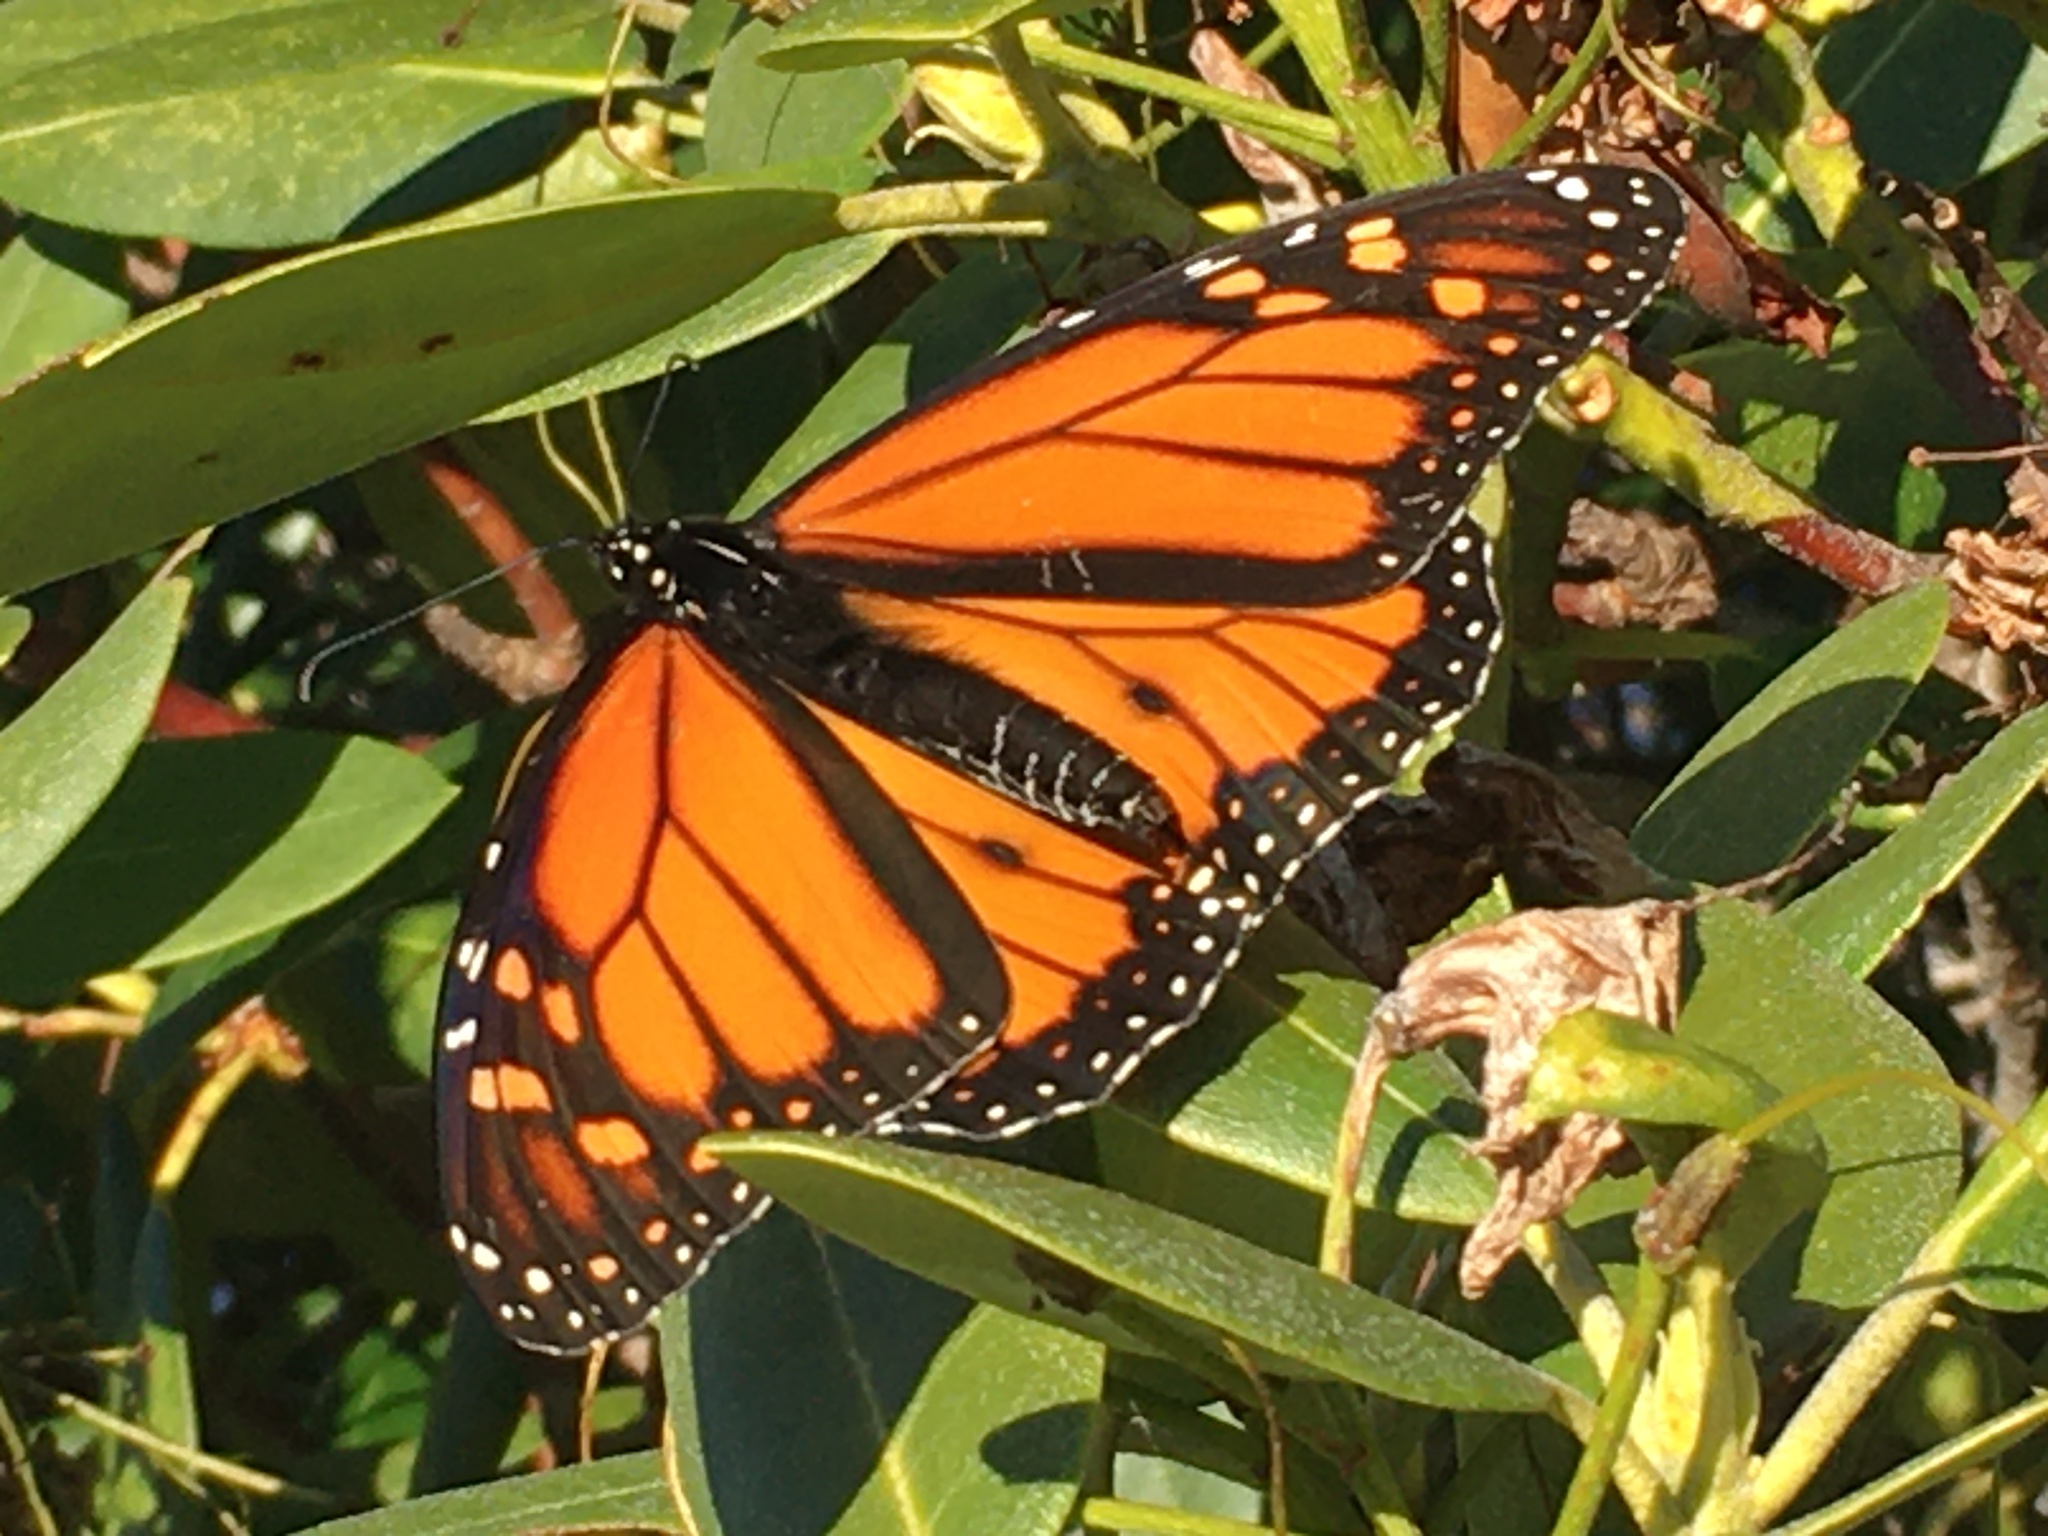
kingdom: Animalia
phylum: Arthropoda
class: Insecta
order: Lepidoptera
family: Nymphalidae
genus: Danaus
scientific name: Danaus plexippus
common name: Monarch
